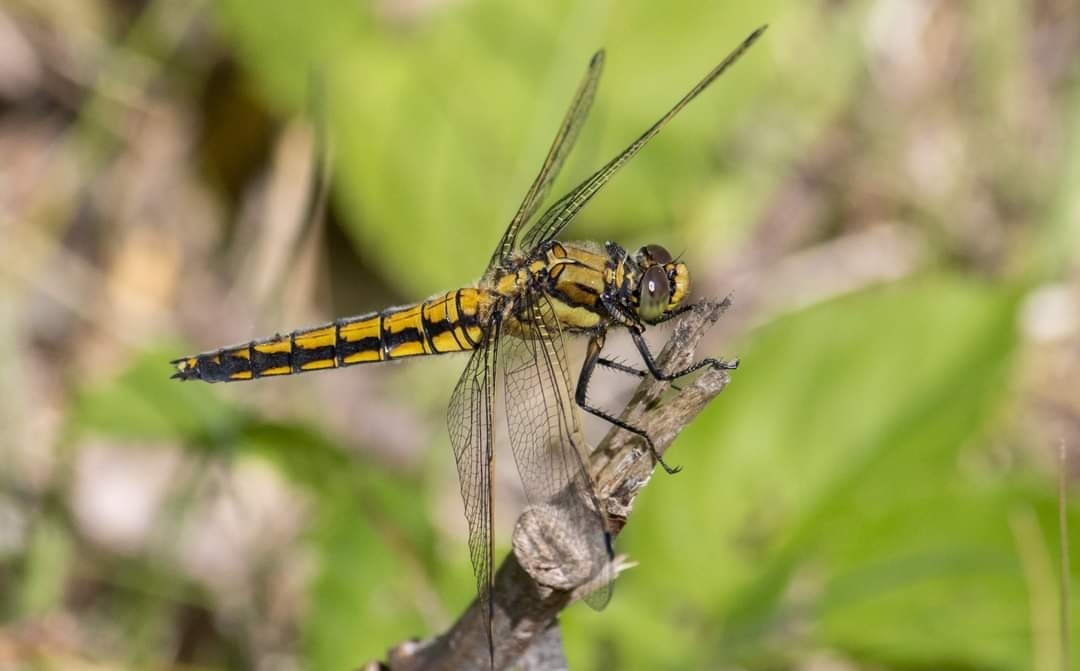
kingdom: Animalia
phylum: Arthropoda
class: Insecta
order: Odonata
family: Libellulidae
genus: Orthetrum
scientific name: Orthetrum cancellatum
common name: Black-tailed skimmer
